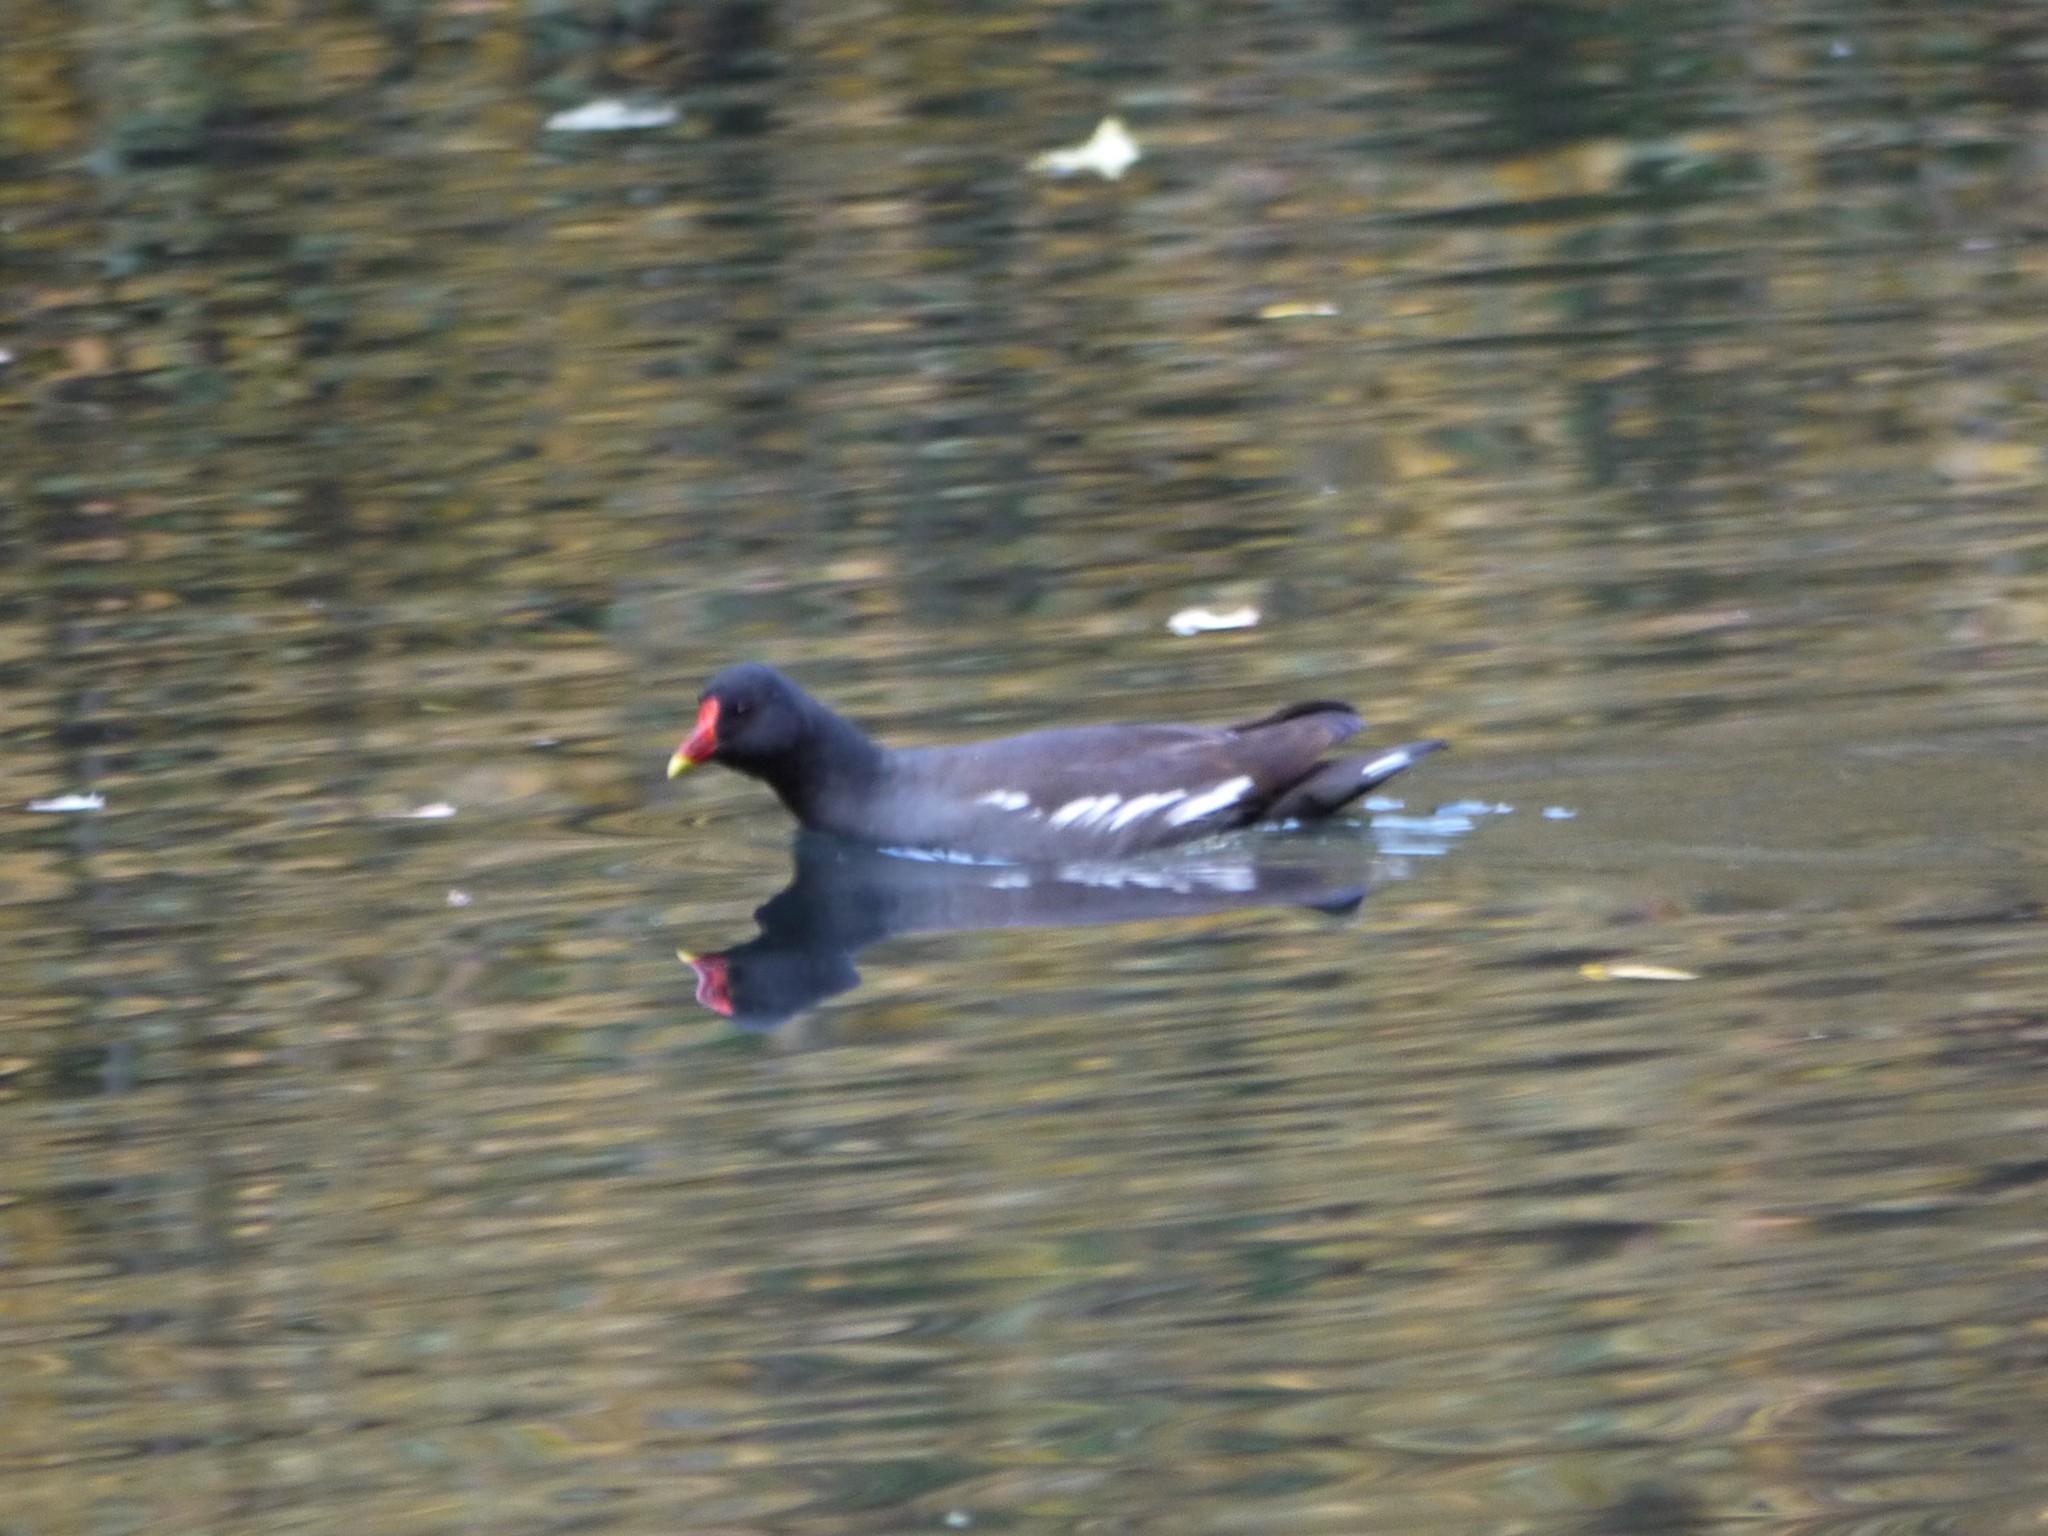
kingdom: Animalia
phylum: Chordata
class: Aves
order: Gruiformes
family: Rallidae
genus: Gallinula
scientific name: Gallinula chloropus
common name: Common moorhen
